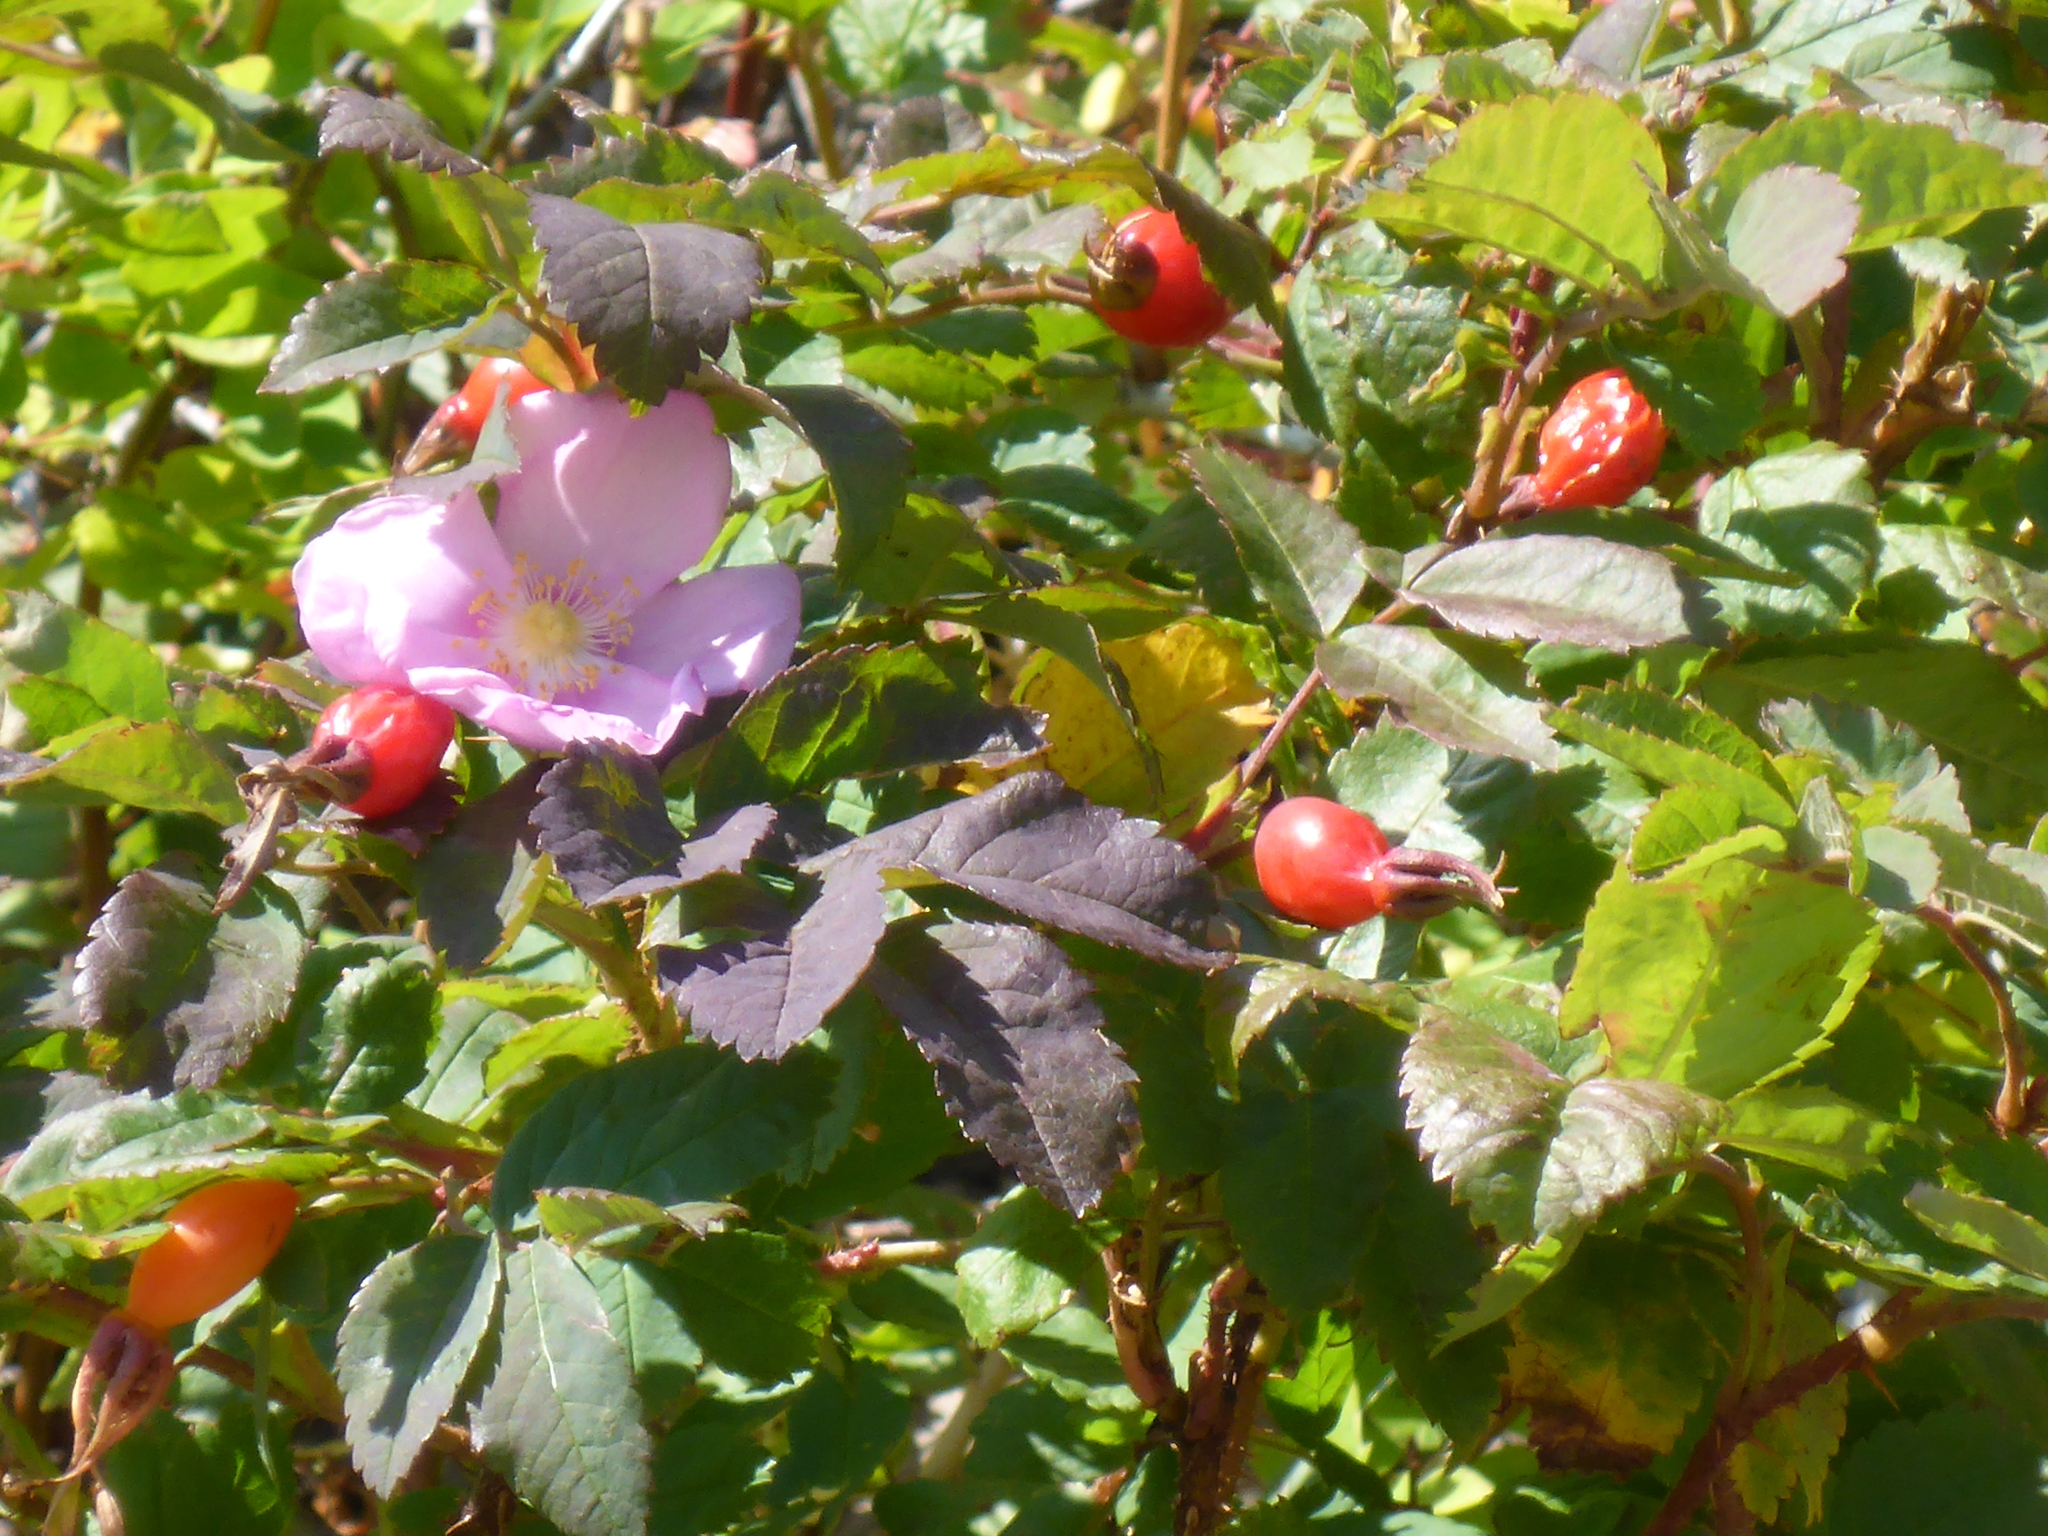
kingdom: Plantae
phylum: Tracheophyta
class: Magnoliopsida
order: Rosales
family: Rosaceae
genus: Rosa
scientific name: Rosa acicularis
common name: Prickly rose
